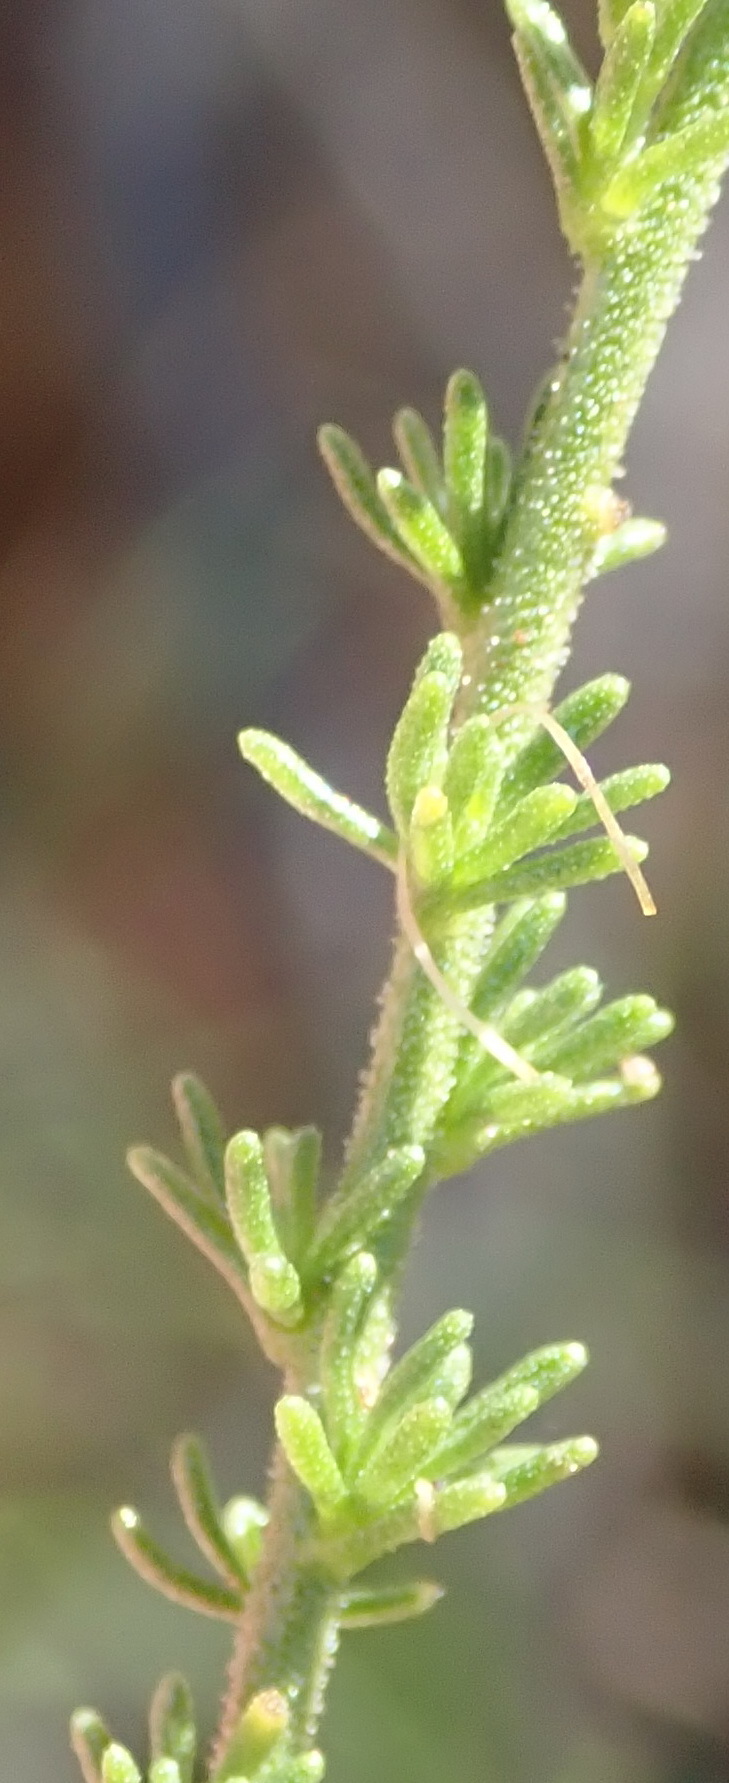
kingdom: Plantae
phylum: Tracheophyta
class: Magnoliopsida
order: Lamiales
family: Scrophulariaceae
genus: Jamesbrittenia
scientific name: Jamesbrittenia tortuosa
